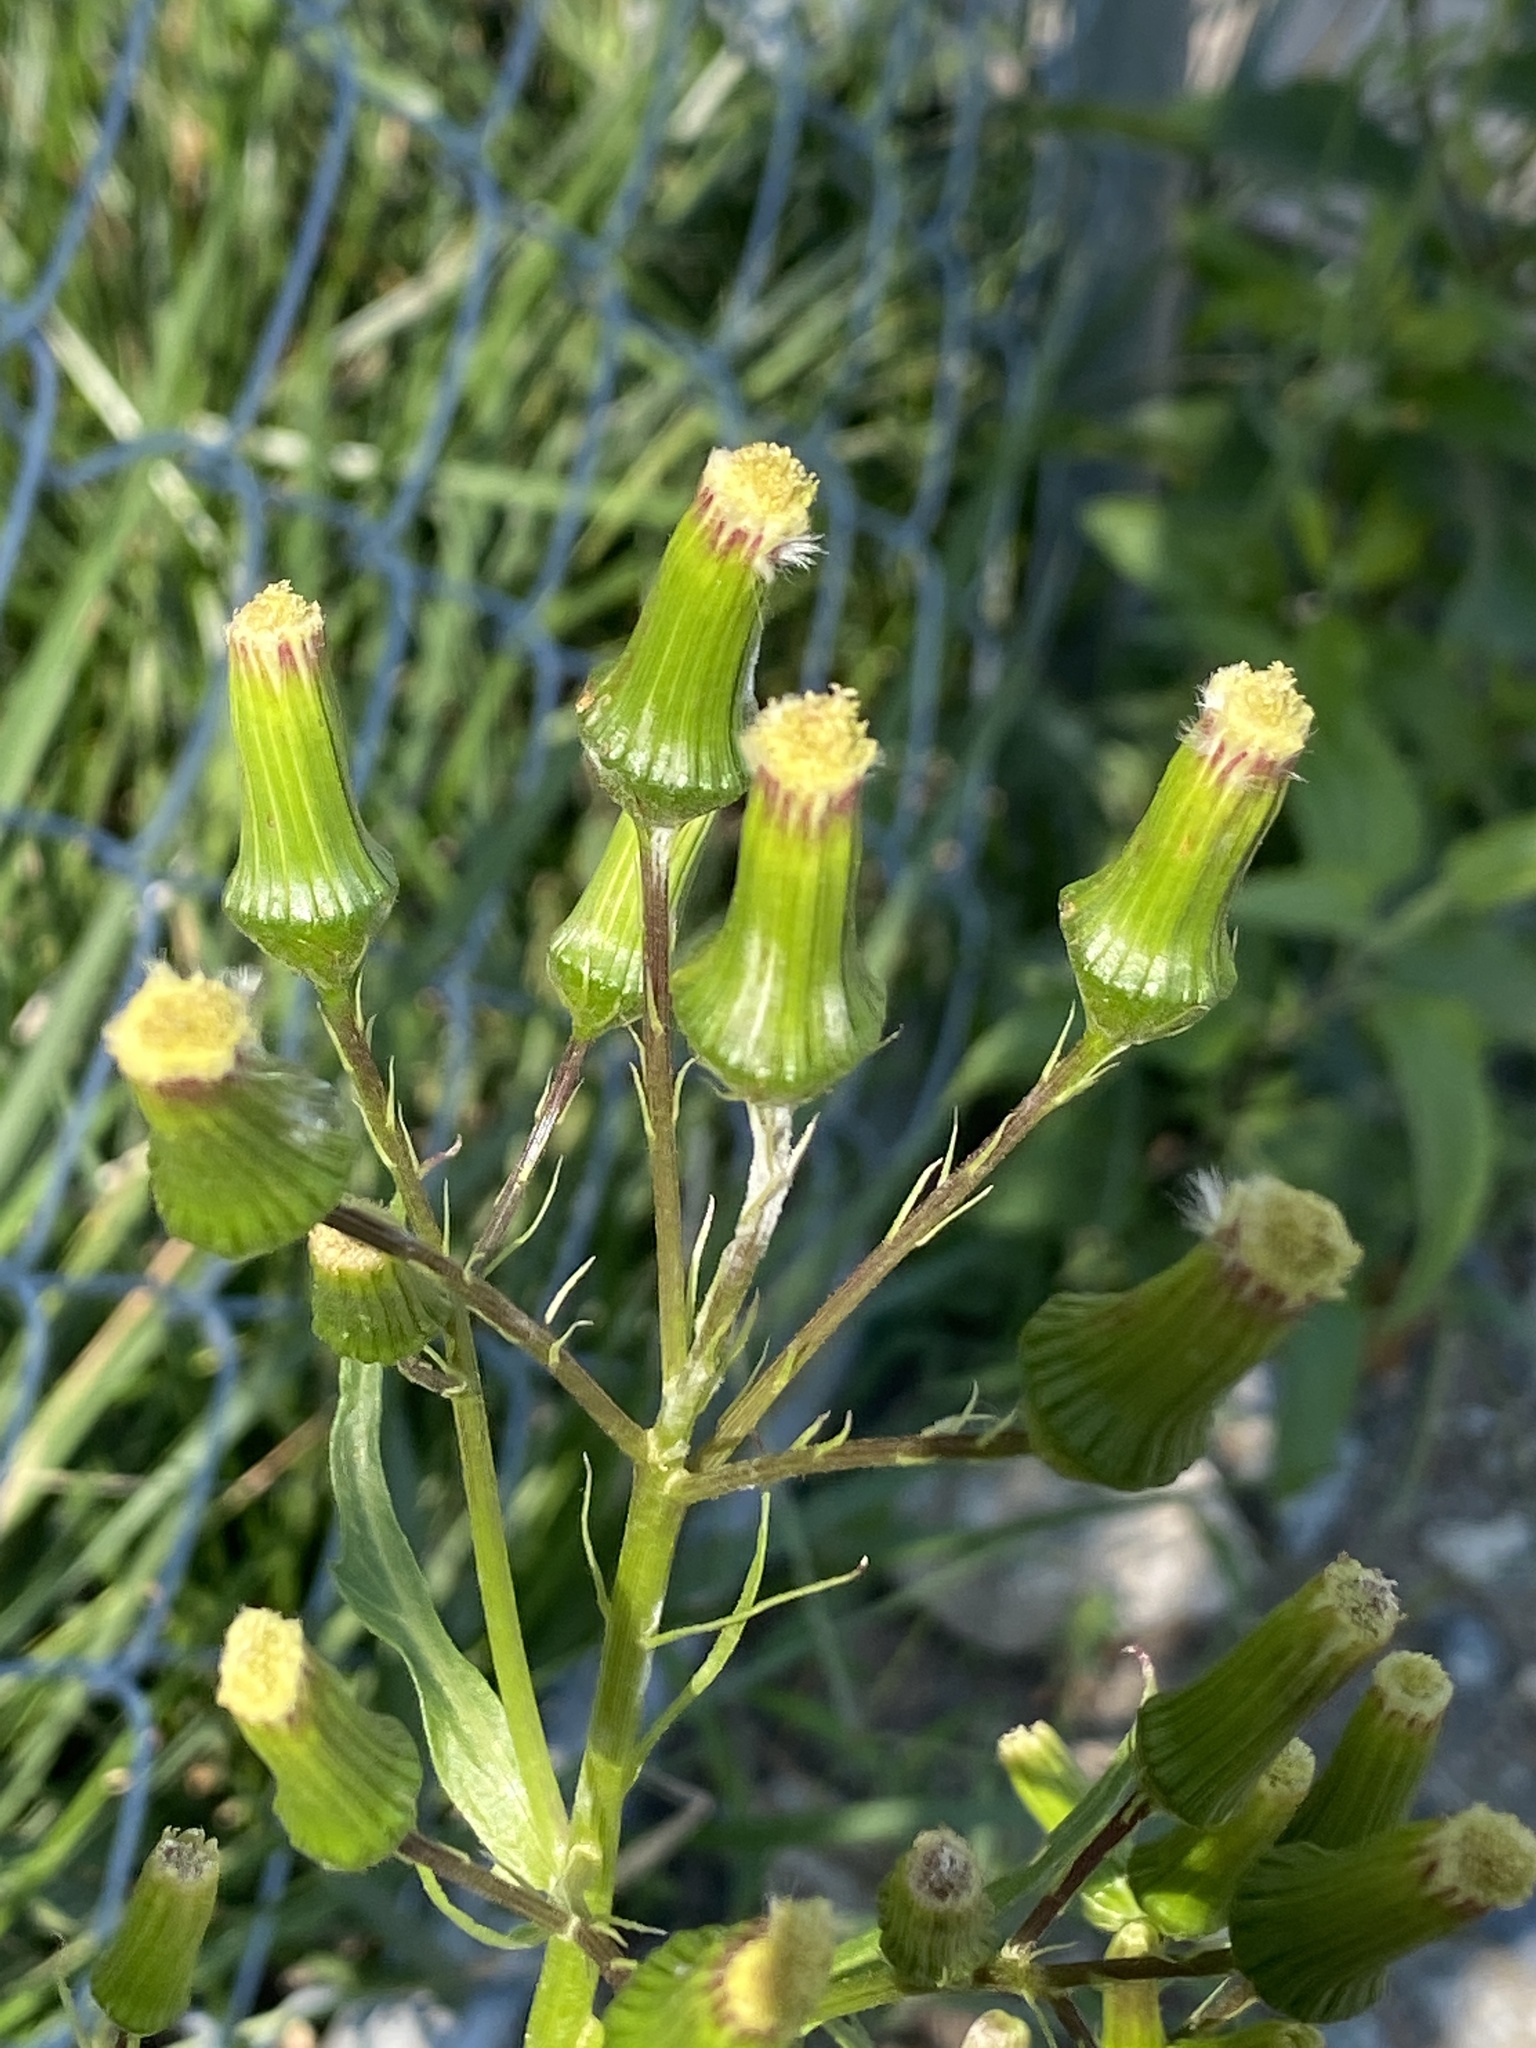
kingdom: Plantae
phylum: Tracheophyta
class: Magnoliopsida
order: Asterales
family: Asteraceae
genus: Erechtites
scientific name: Erechtites hieraciifolius
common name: American burnweed
